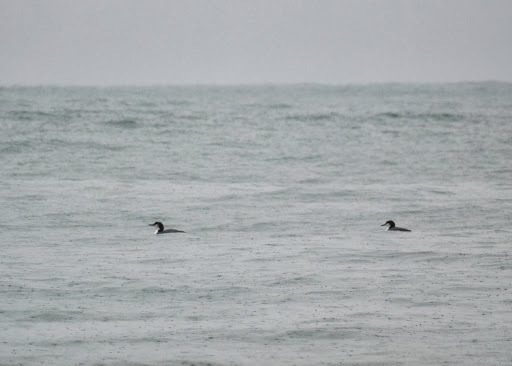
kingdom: Animalia
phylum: Chordata
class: Aves
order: Gaviiformes
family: Gaviidae
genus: Gavia
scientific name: Gavia immer
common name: Common loon
